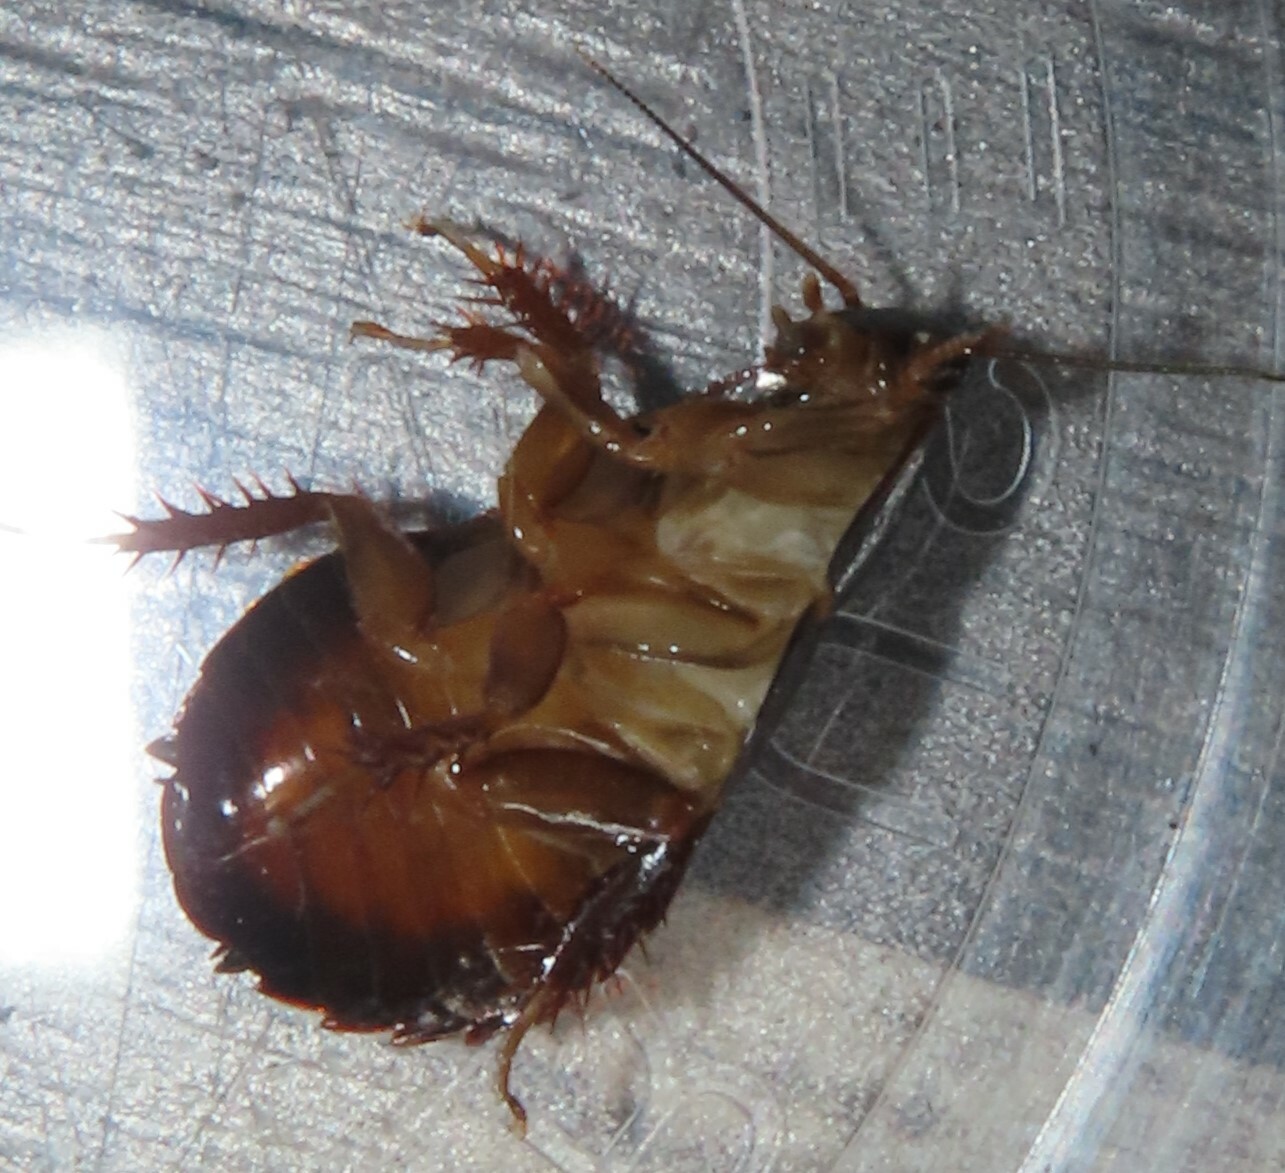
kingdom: Animalia
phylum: Arthropoda
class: Insecta
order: Blattodea
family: Blaberidae
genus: Pycnoscelus
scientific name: Pycnoscelus surinamensis
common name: Surinam cockroach
